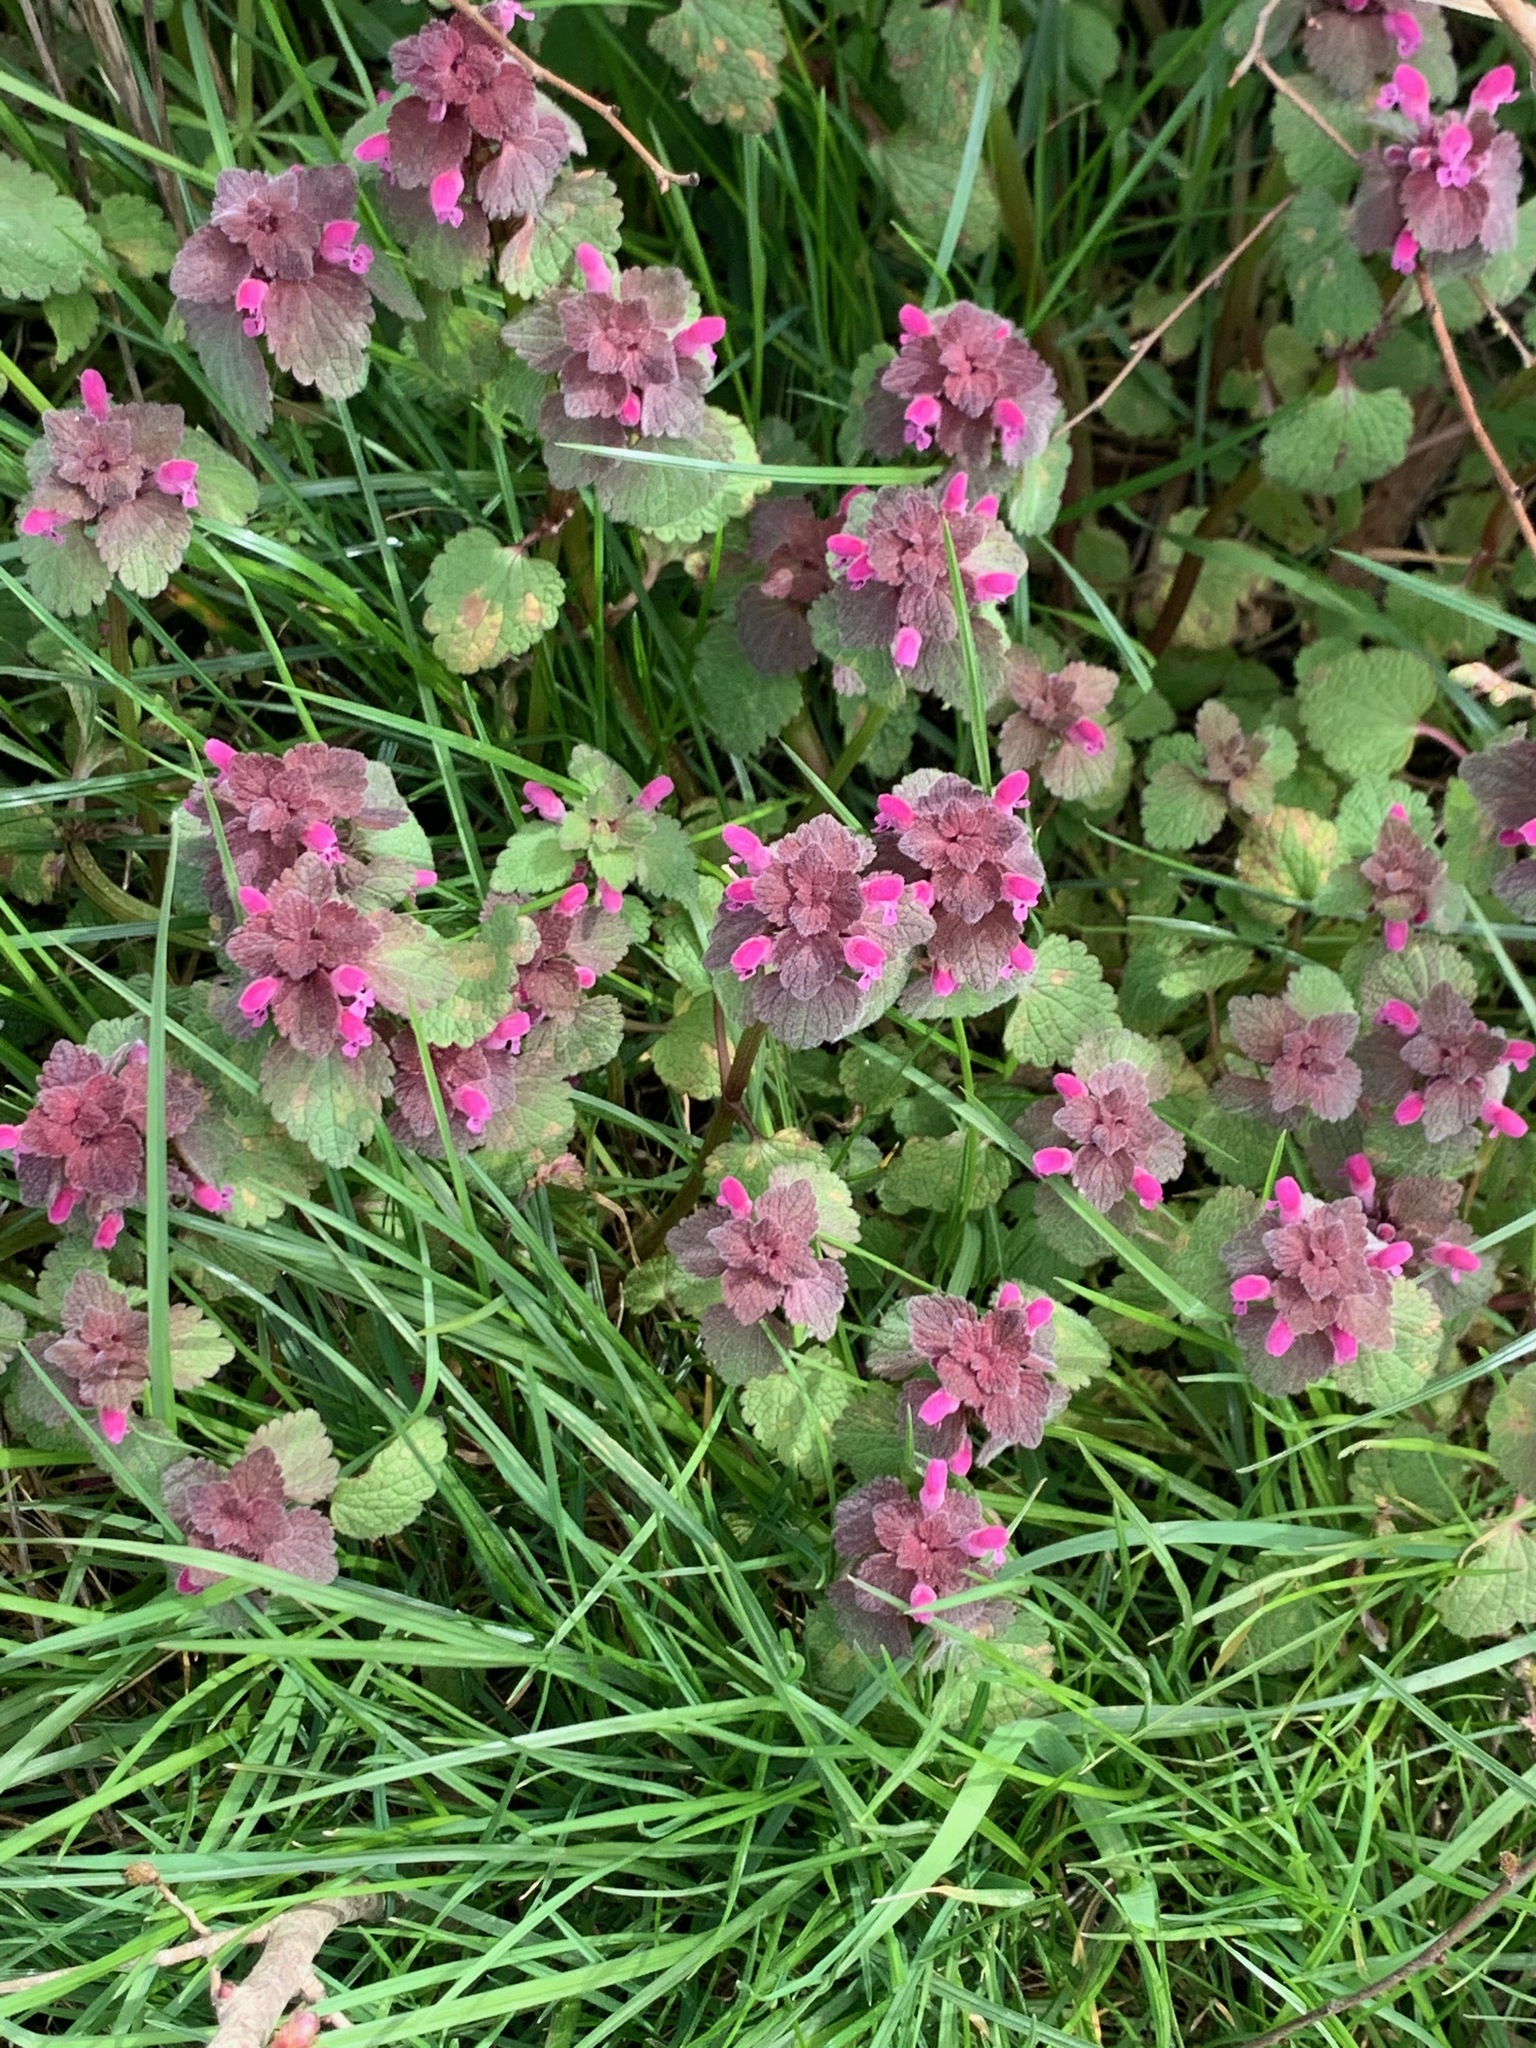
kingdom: Plantae
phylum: Tracheophyta
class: Magnoliopsida
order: Lamiales
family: Lamiaceae
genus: Lamium
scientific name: Lamium purpureum
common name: Red dead-nettle
